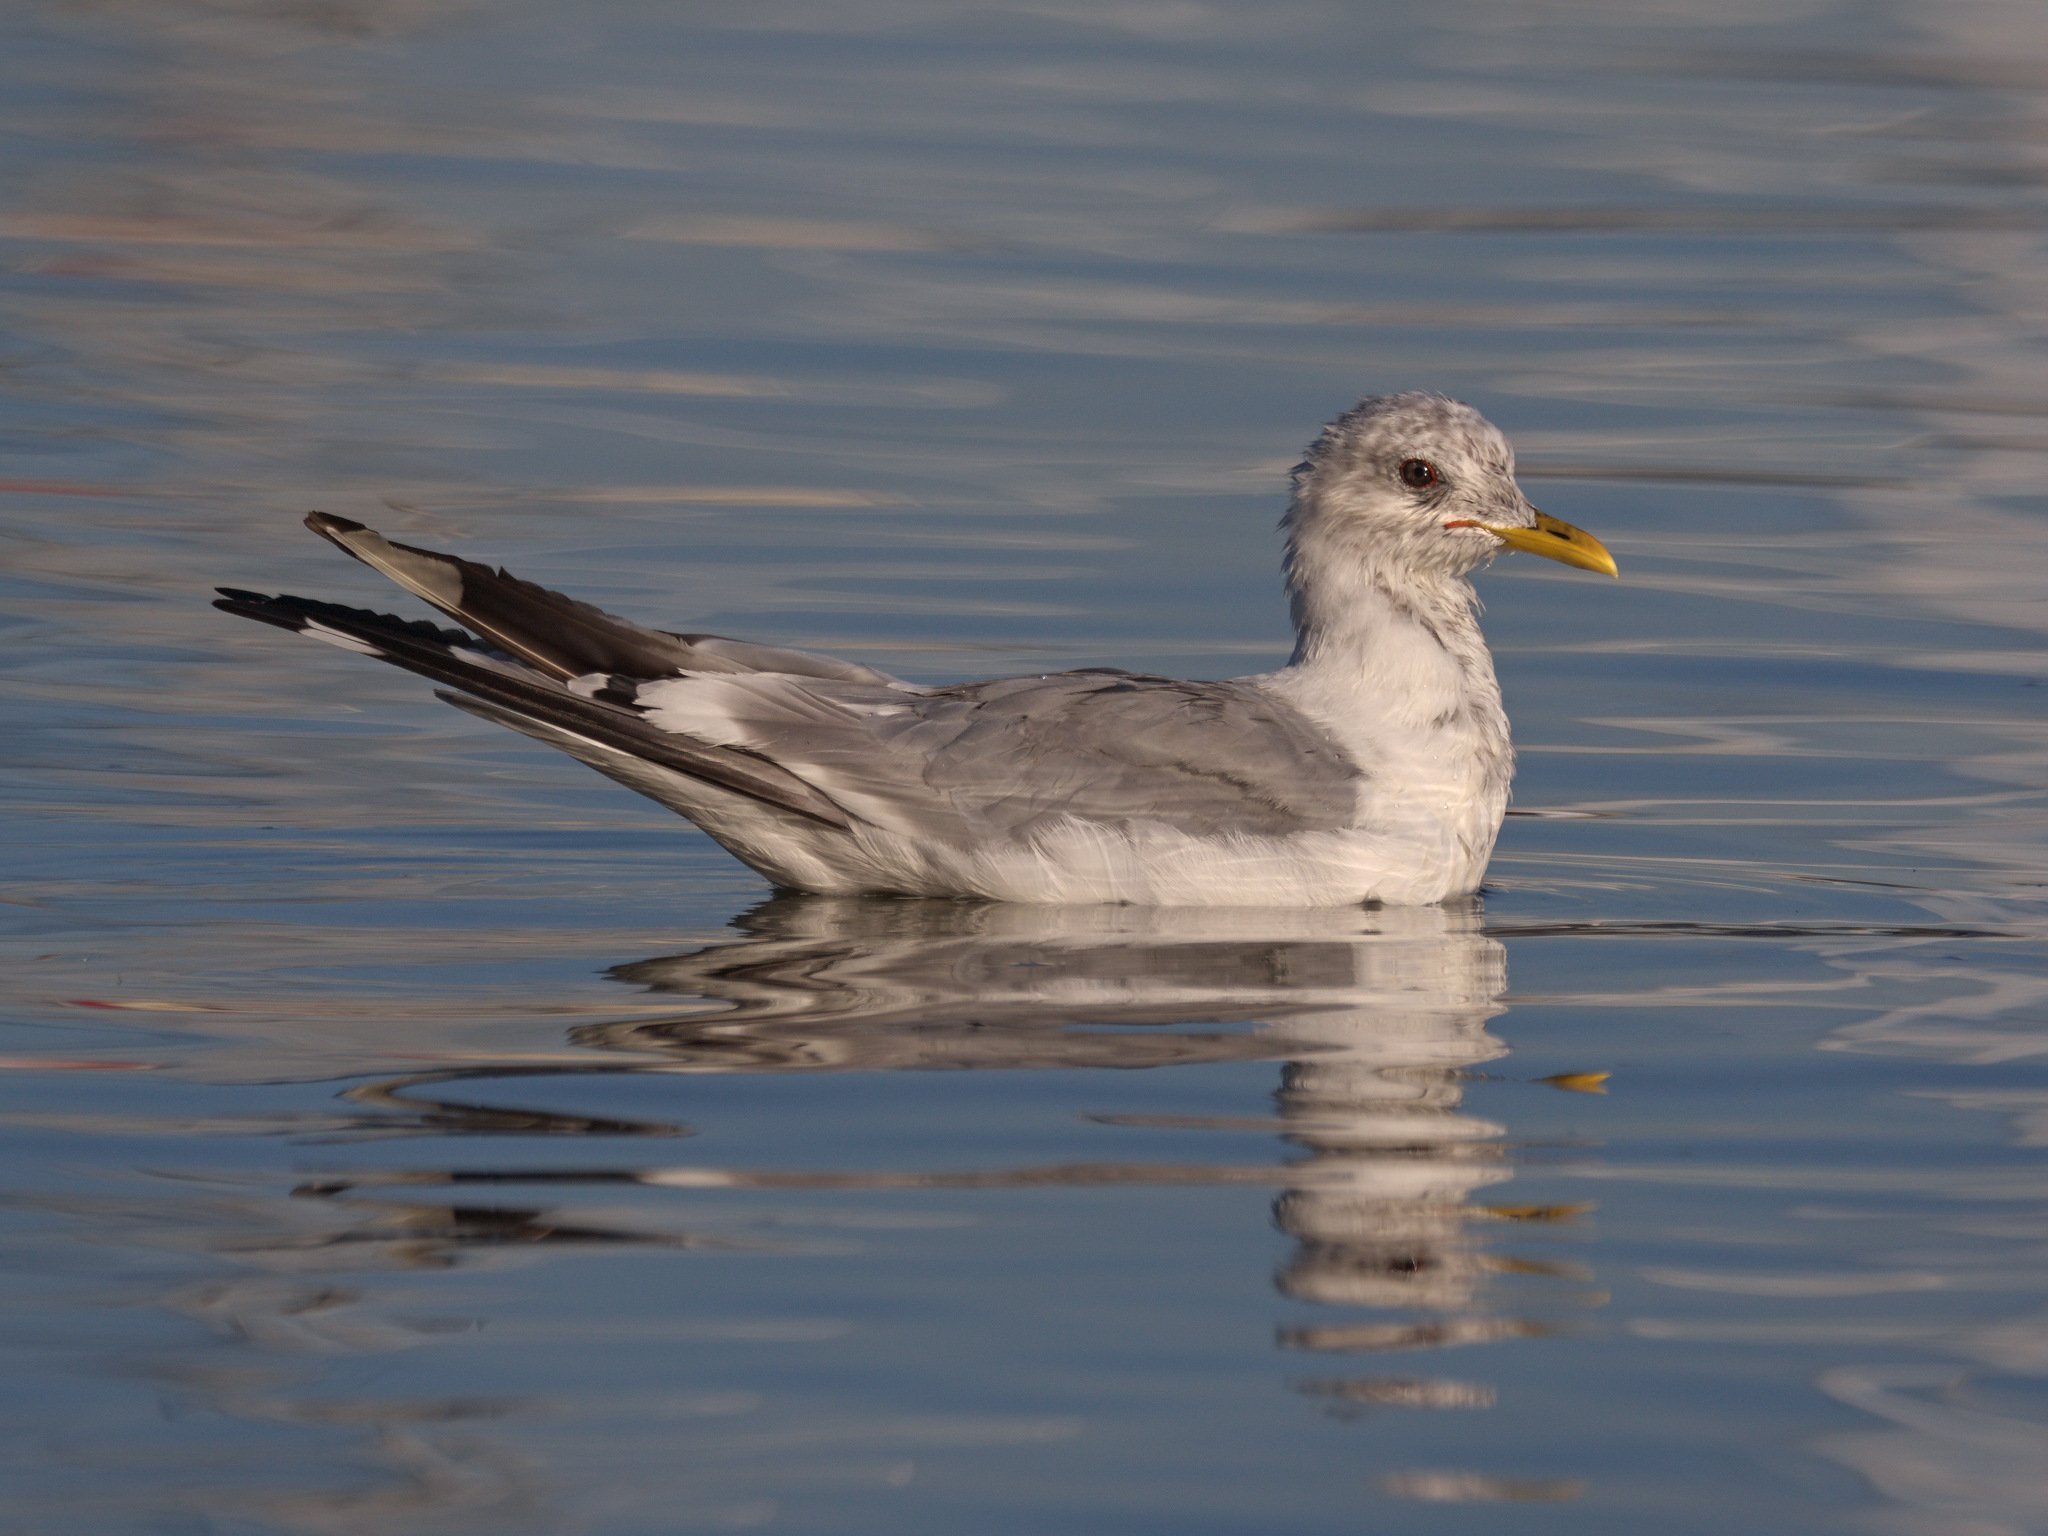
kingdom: Animalia
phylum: Chordata
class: Aves
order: Charadriiformes
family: Laridae
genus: Larus
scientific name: Larus brachyrhynchus
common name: Short-billed gull
